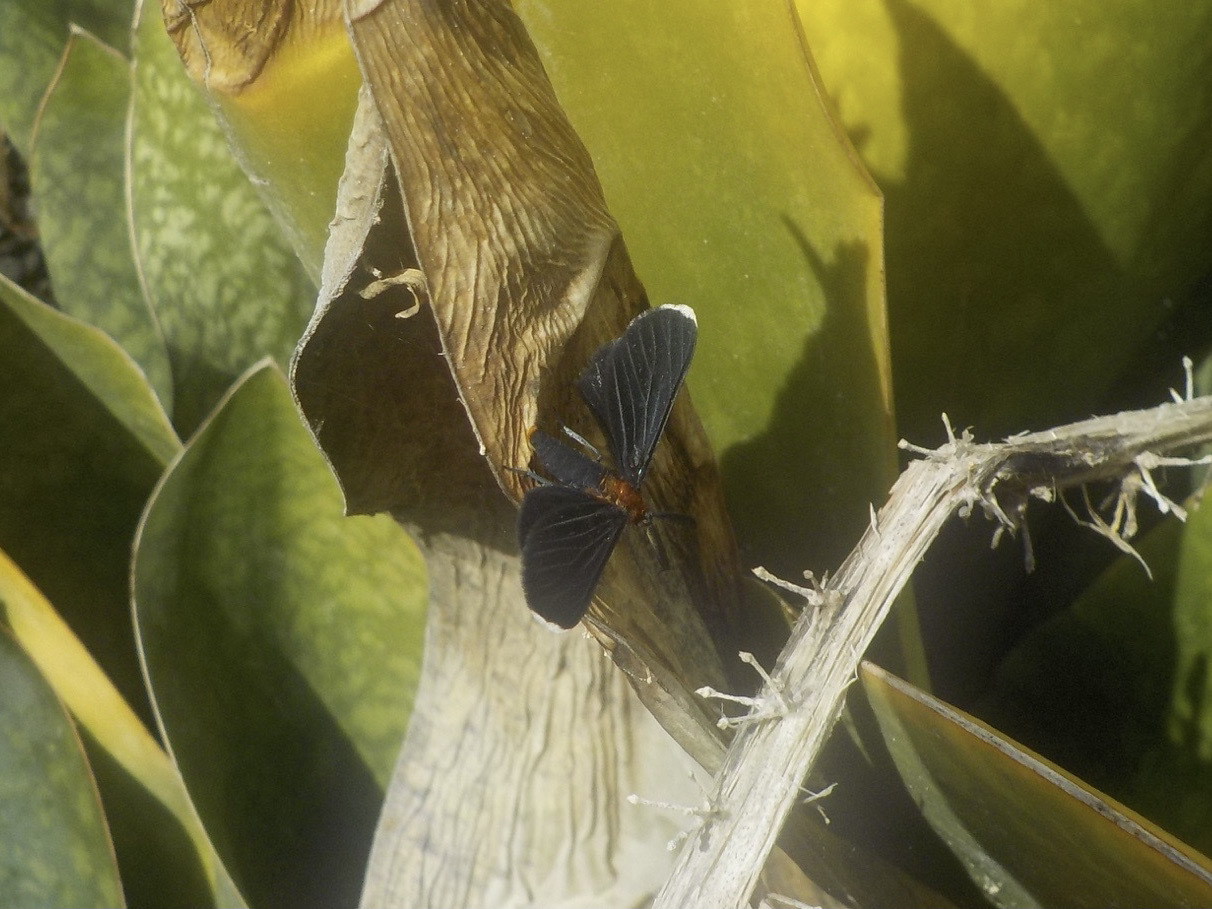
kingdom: Animalia
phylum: Arthropoda
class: Insecta
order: Lepidoptera
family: Geometridae
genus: Melanchroia
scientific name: Melanchroia chephise
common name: White-tipped black
